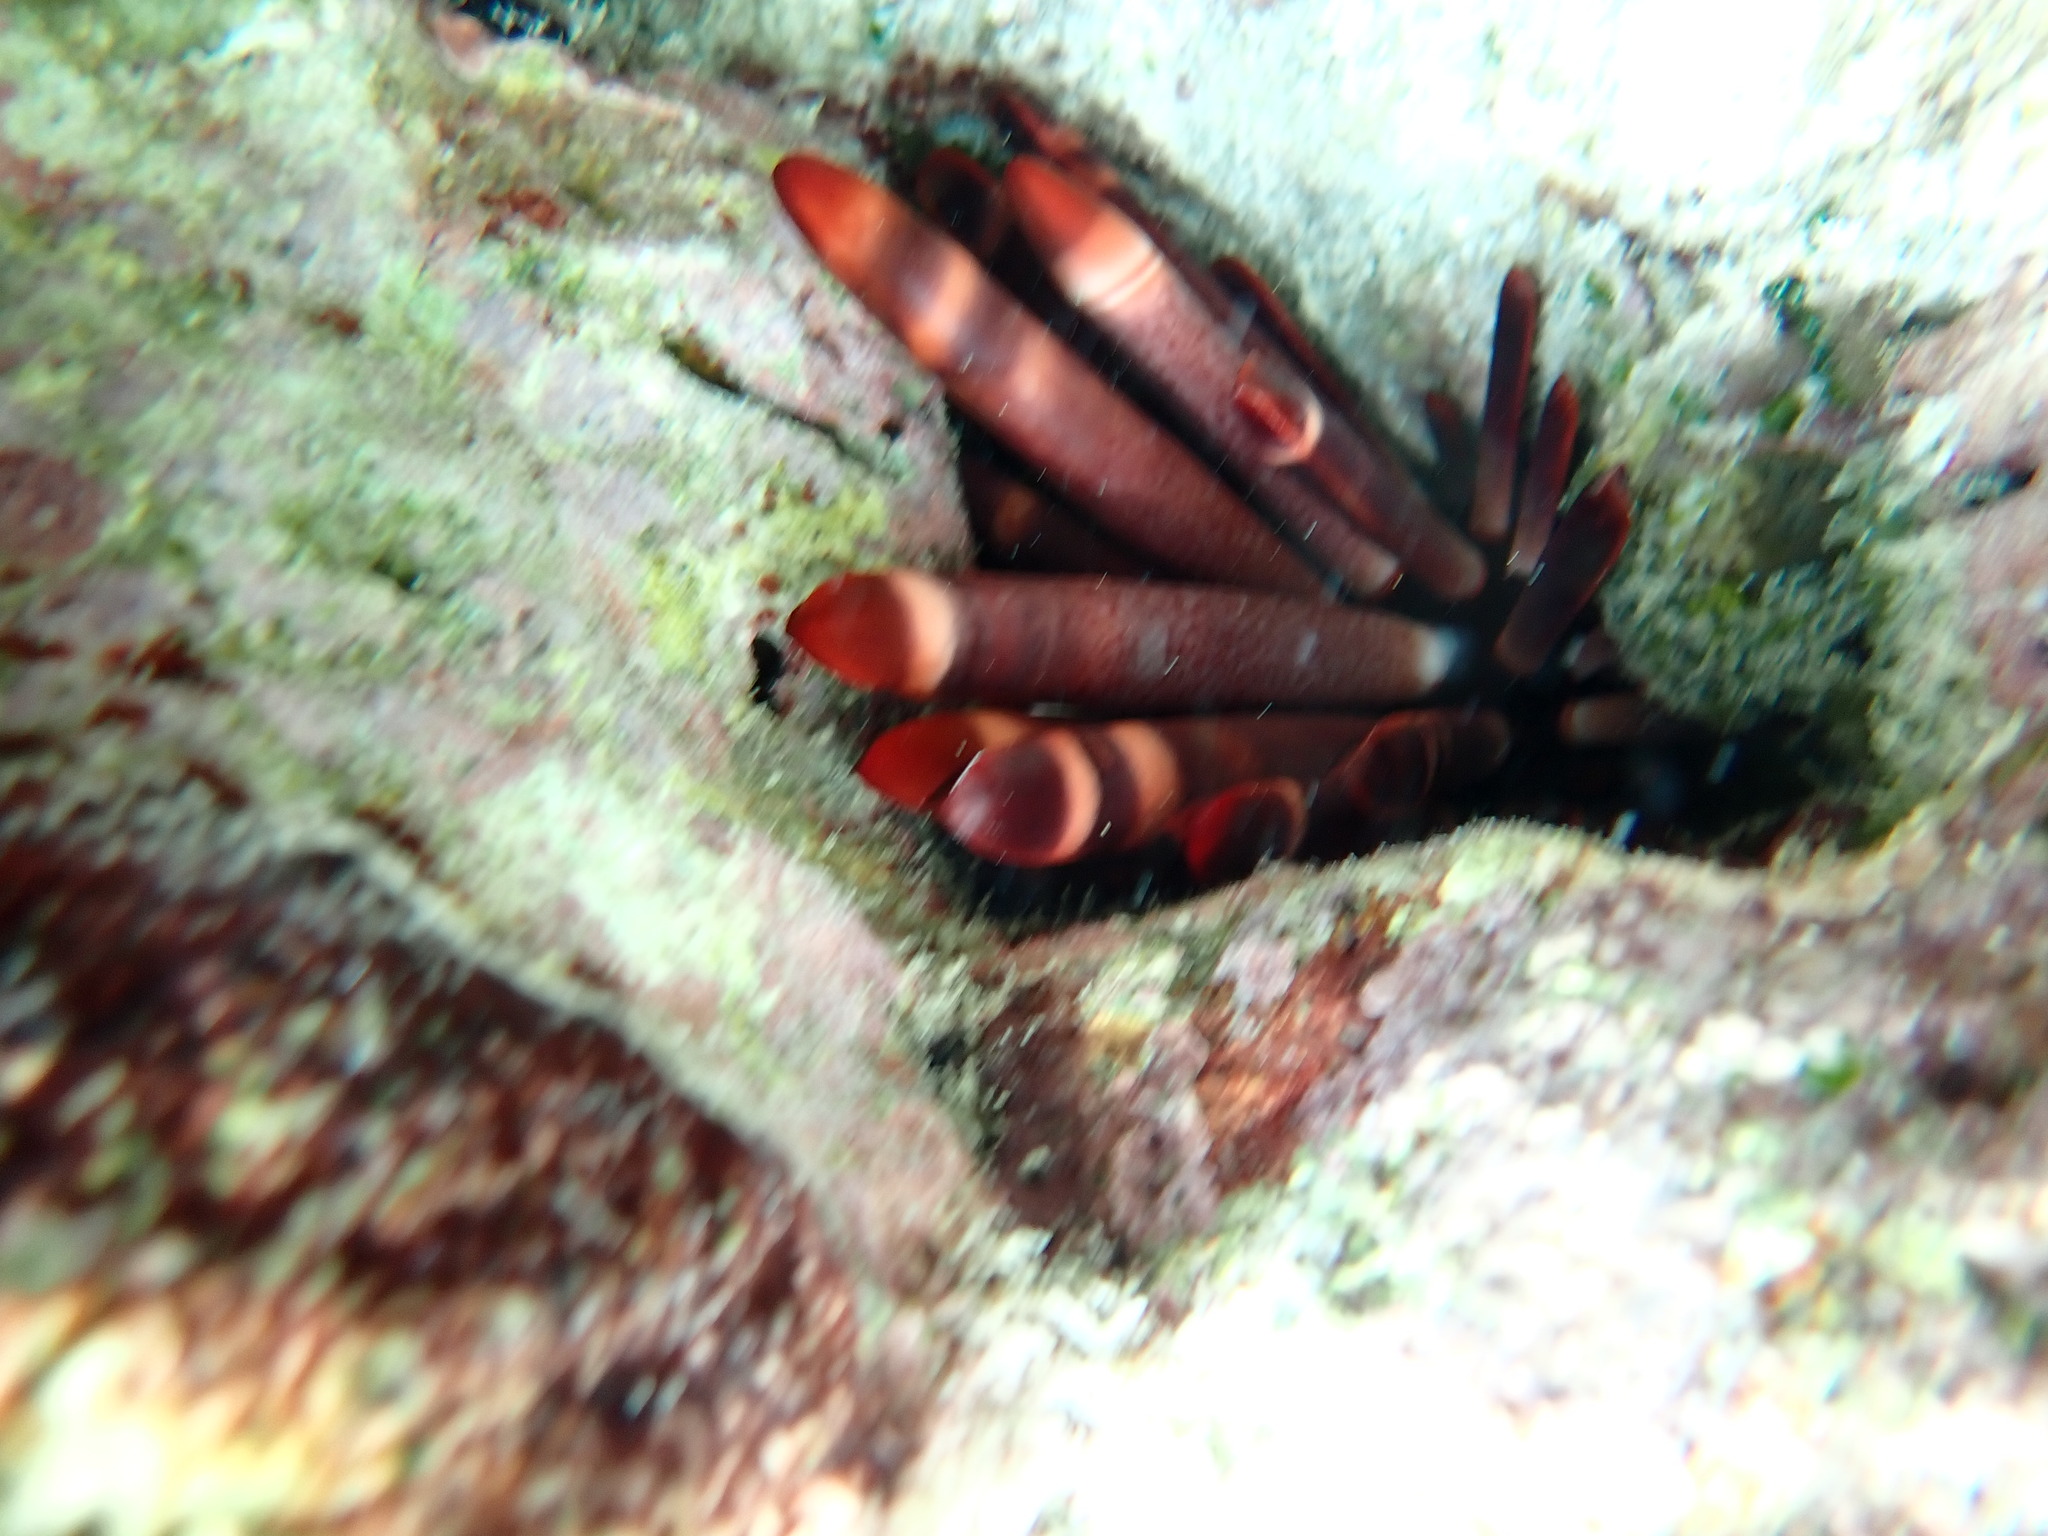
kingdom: Animalia
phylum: Echinodermata
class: Echinoidea
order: Camarodonta
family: Echinometridae
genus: Heterocentrotus
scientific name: Heterocentrotus mamillatus
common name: Slate pencil urchin
